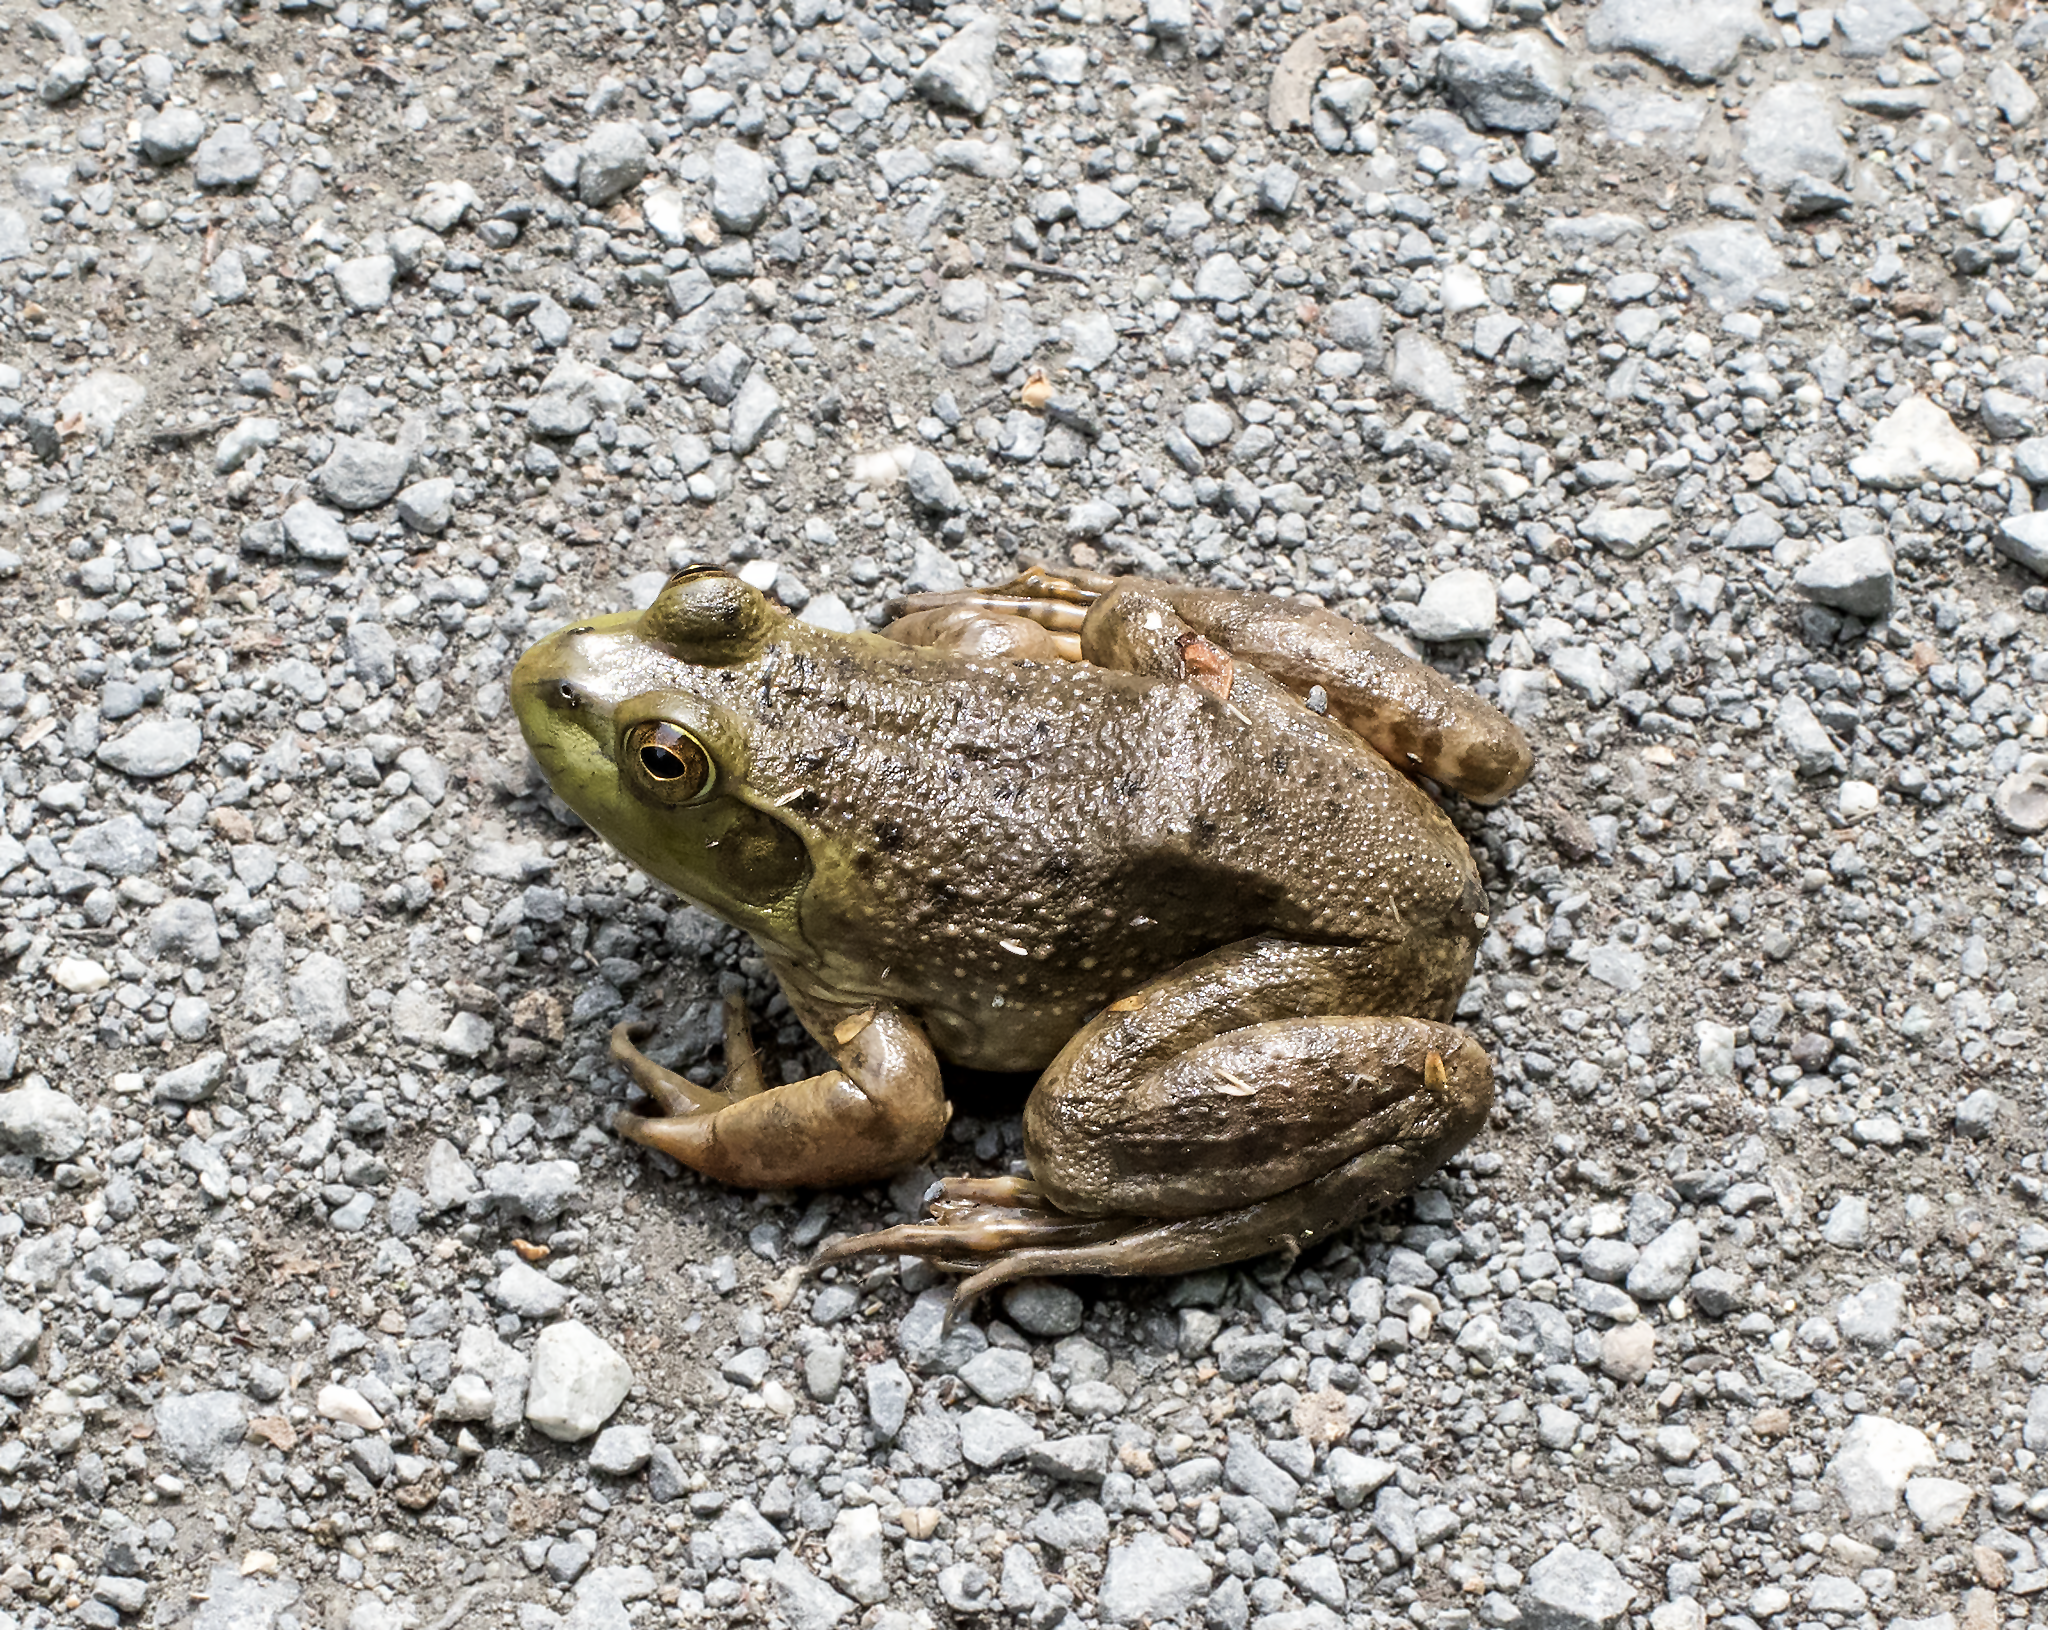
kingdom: Animalia
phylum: Chordata
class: Amphibia
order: Anura
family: Ranidae
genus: Lithobates
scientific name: Lithobates catesbeianus
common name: American bullfrog
